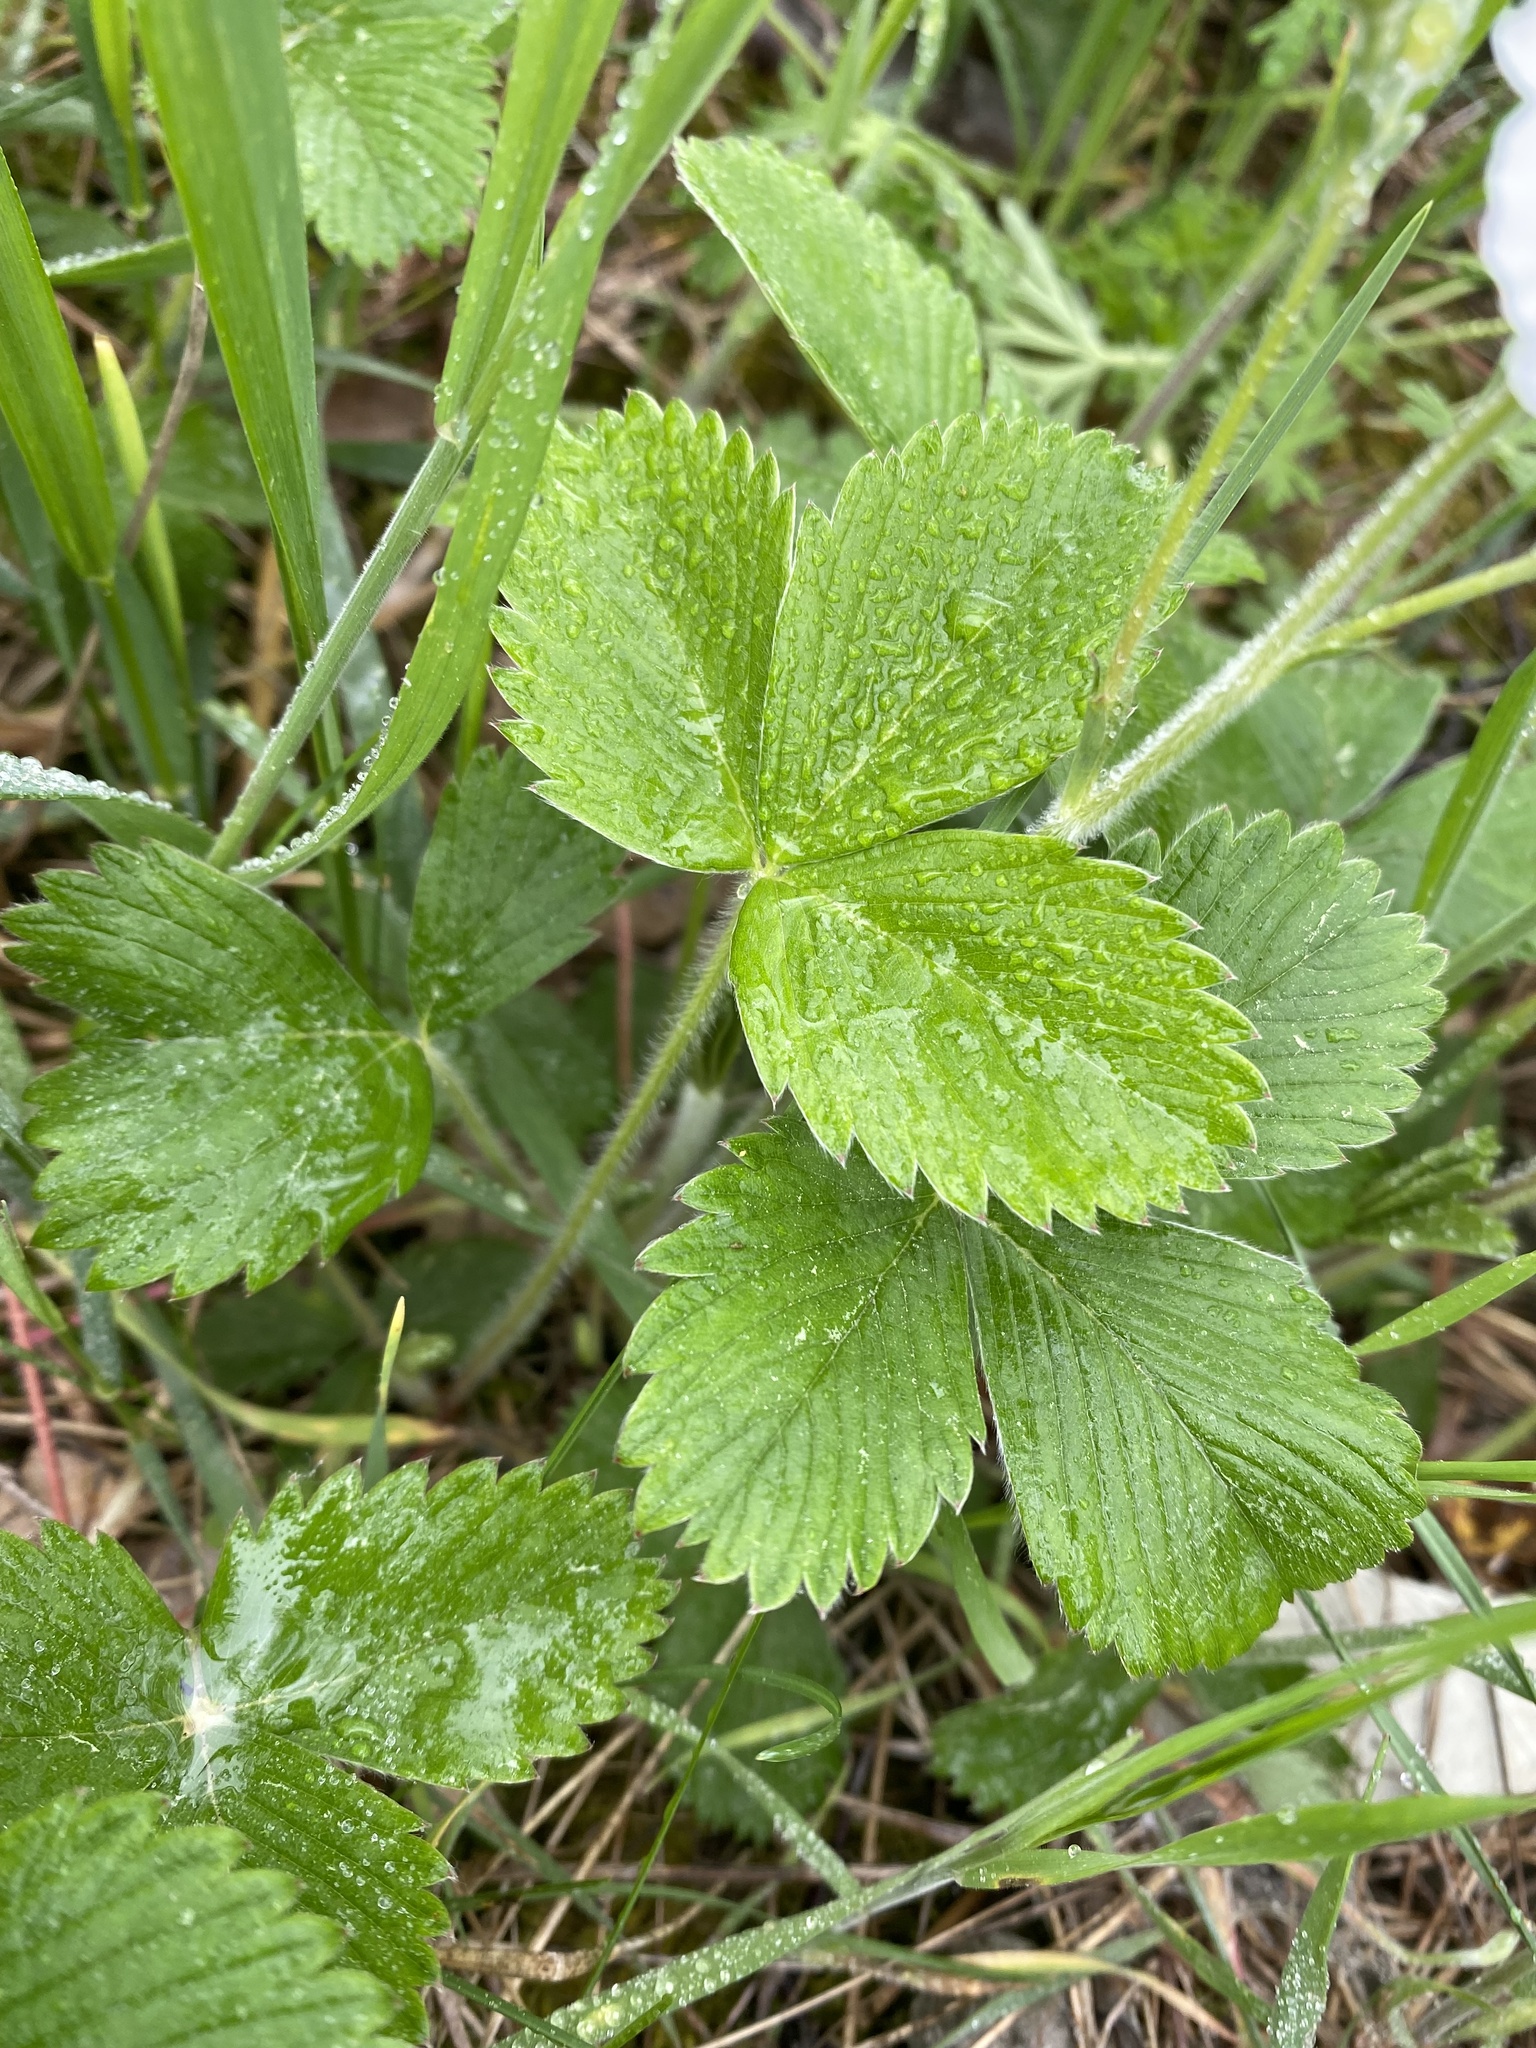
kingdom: Plantae
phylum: Tracheophyta
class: Magnoliopsida
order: Rosales
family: Rosaceae
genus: Fragaria
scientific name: Fragaria viridis
